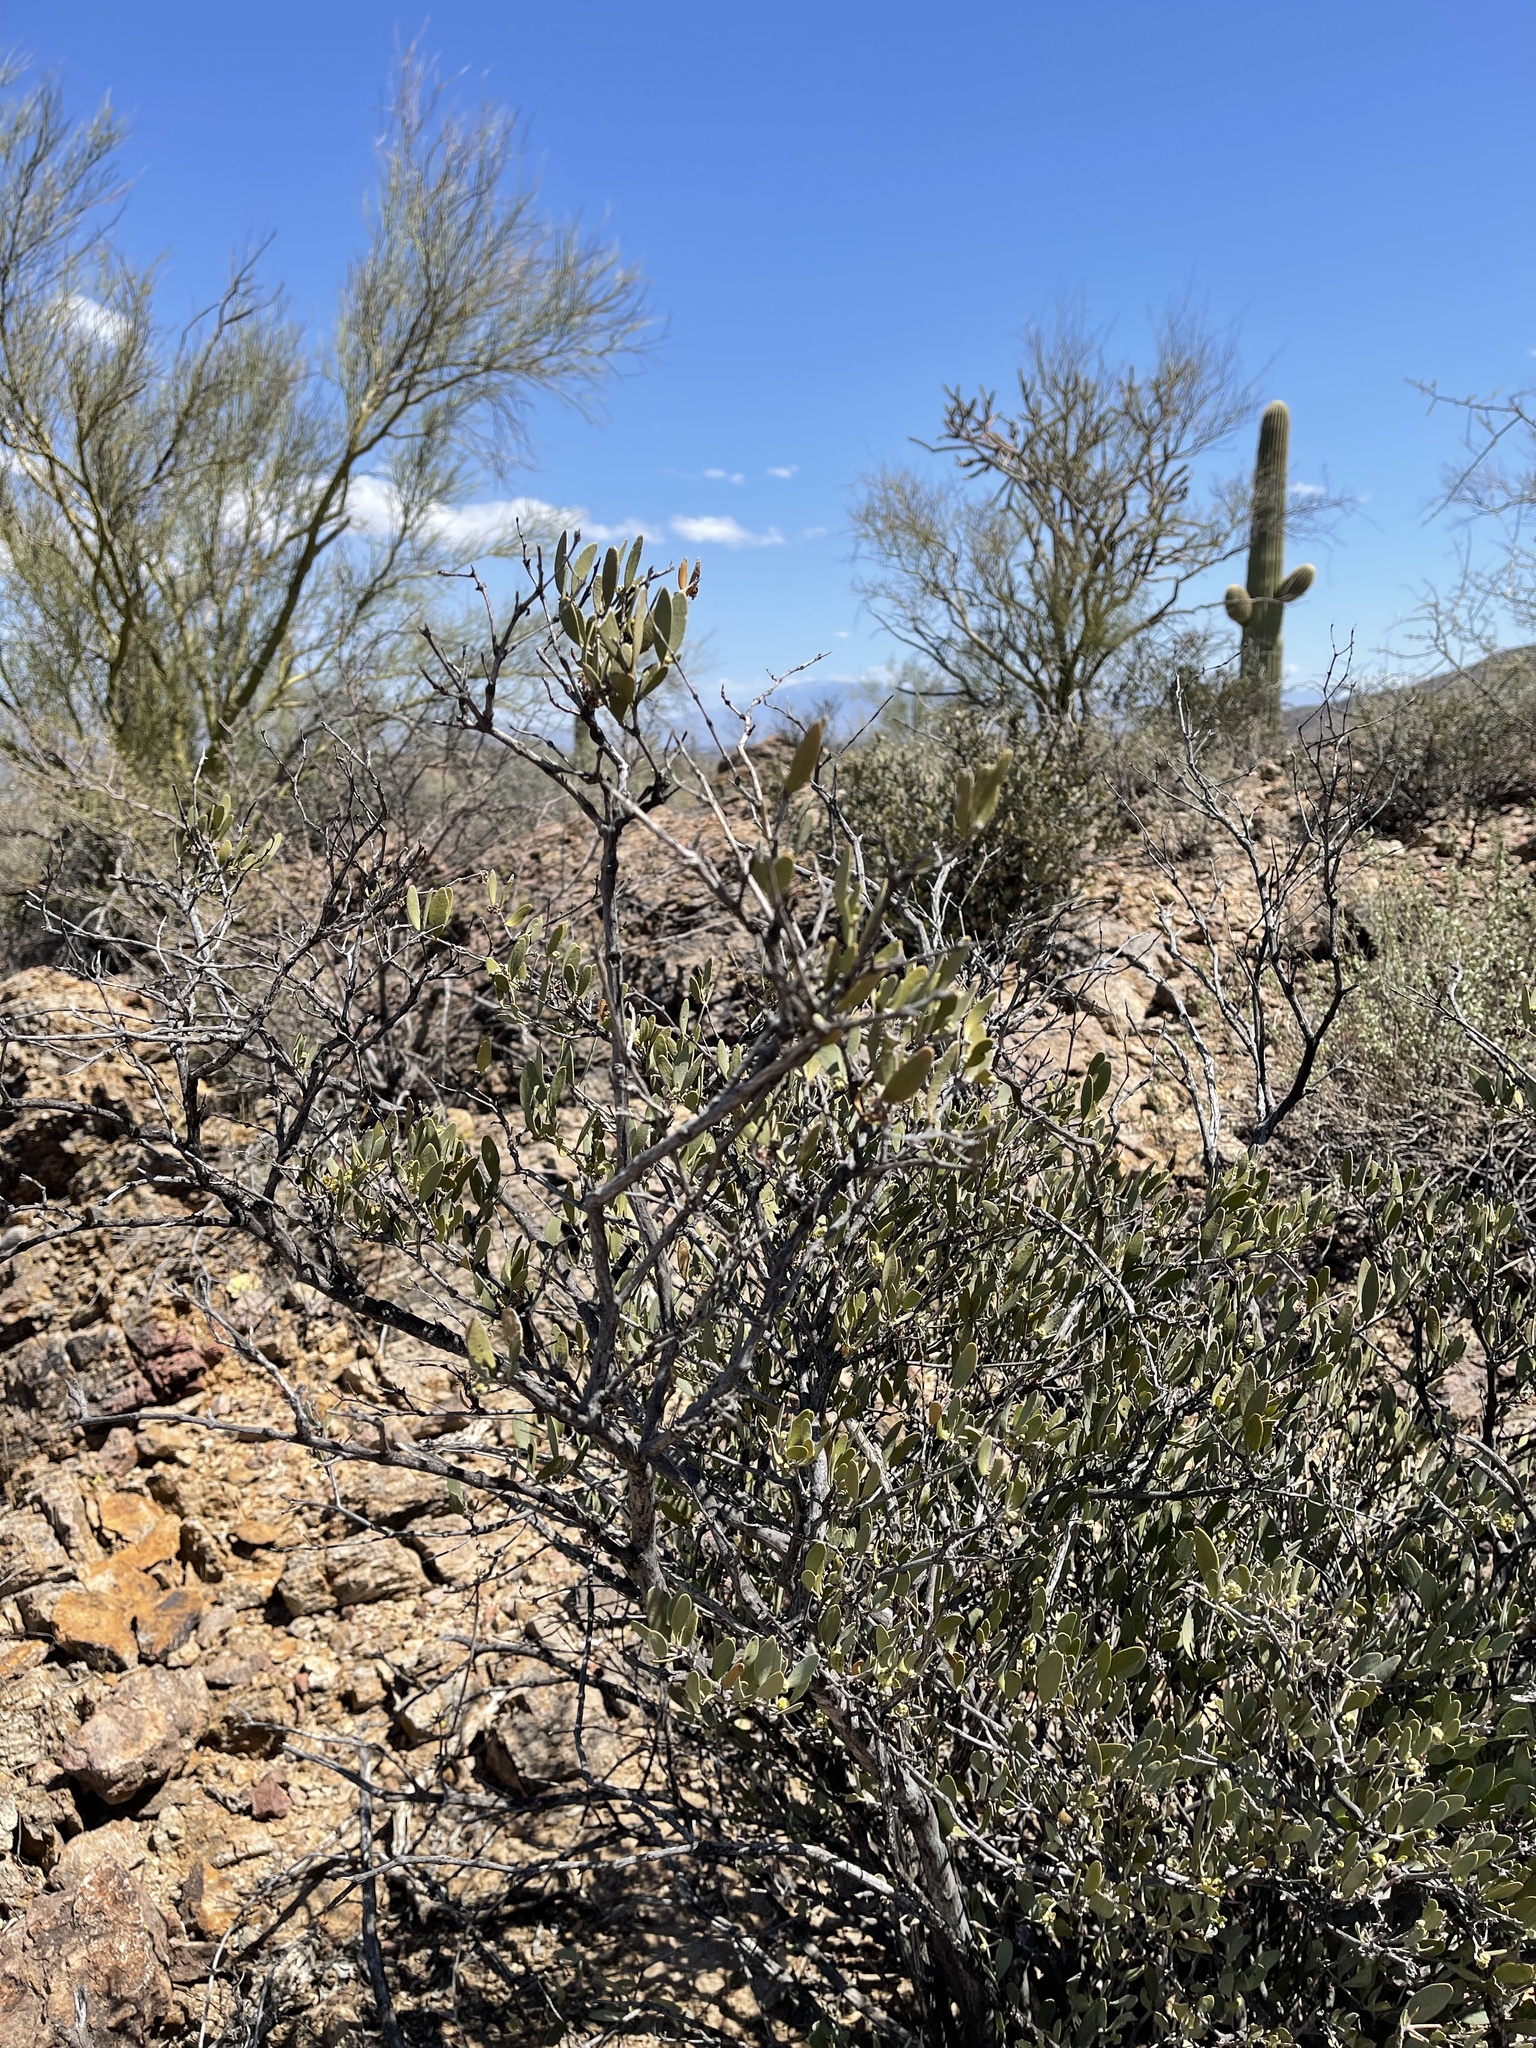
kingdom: Plantae
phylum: Tracheophyta
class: Magnoliopsida
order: Caryophyllales
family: Simmondsiaceae
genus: Simmondsia
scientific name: Simmondsia chinensis
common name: Jojoba
